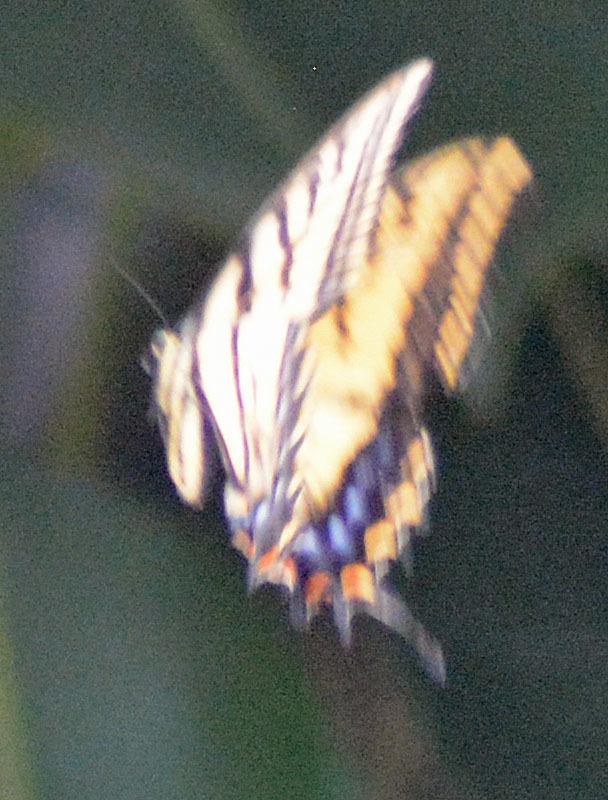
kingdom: Animalia
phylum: Arthropoda
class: Insecta
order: Lepidoptera
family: Papilionidae
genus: Papilio
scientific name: Papilio multicaudata
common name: Two-tailed tiger swallowtail
